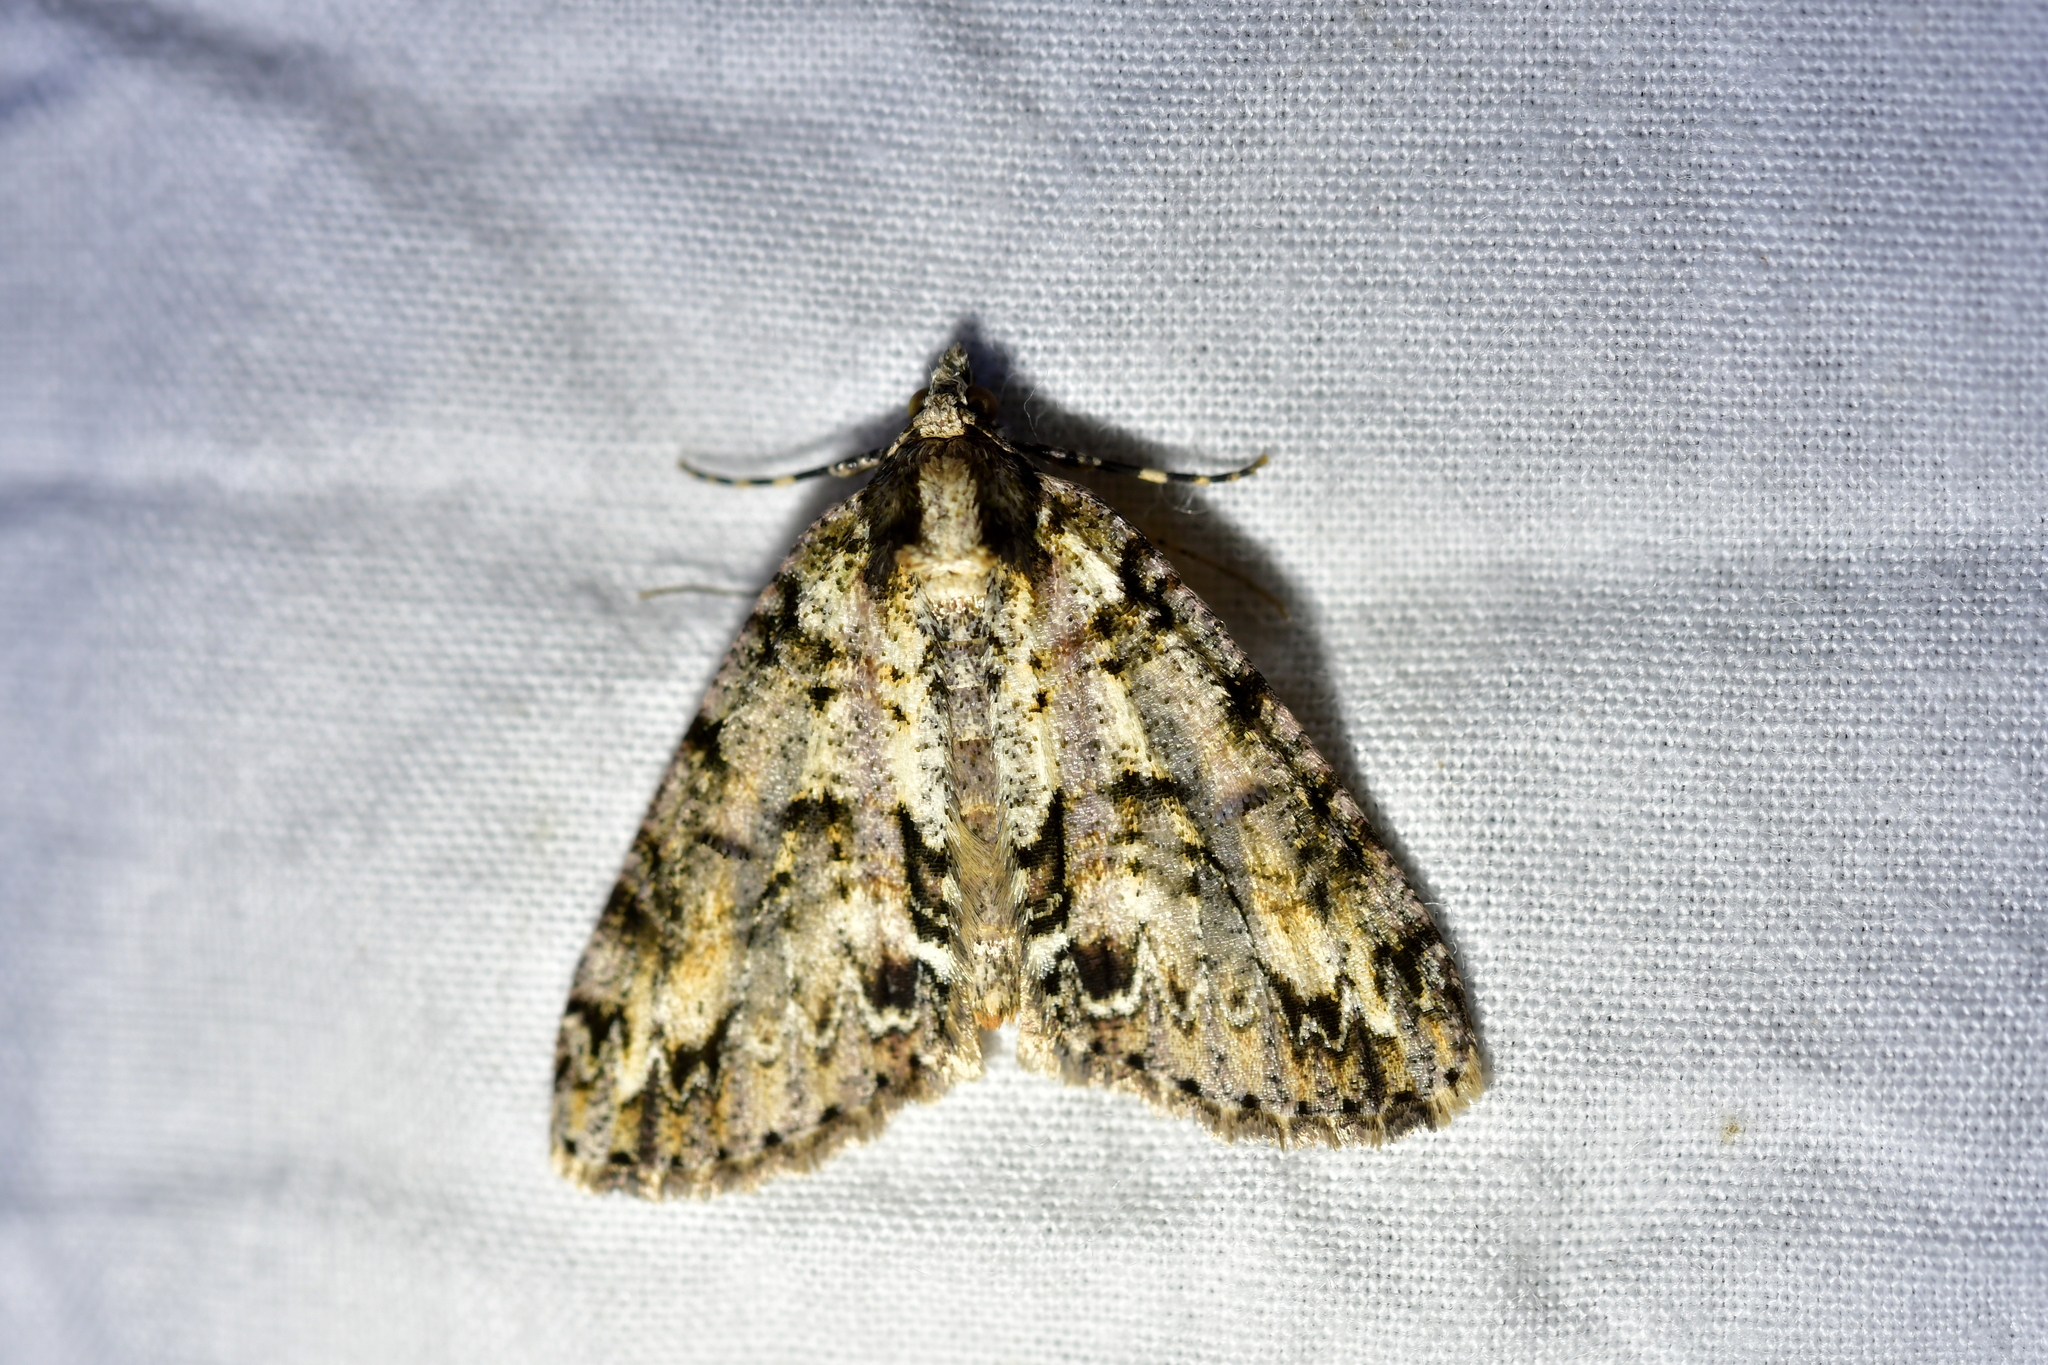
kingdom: Animalia
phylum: Arthropoda
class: Insecta
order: Lepidoptera
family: Geometridae
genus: Pseudocoremia
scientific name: Pseudocoremia suavis
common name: Common forest looper
